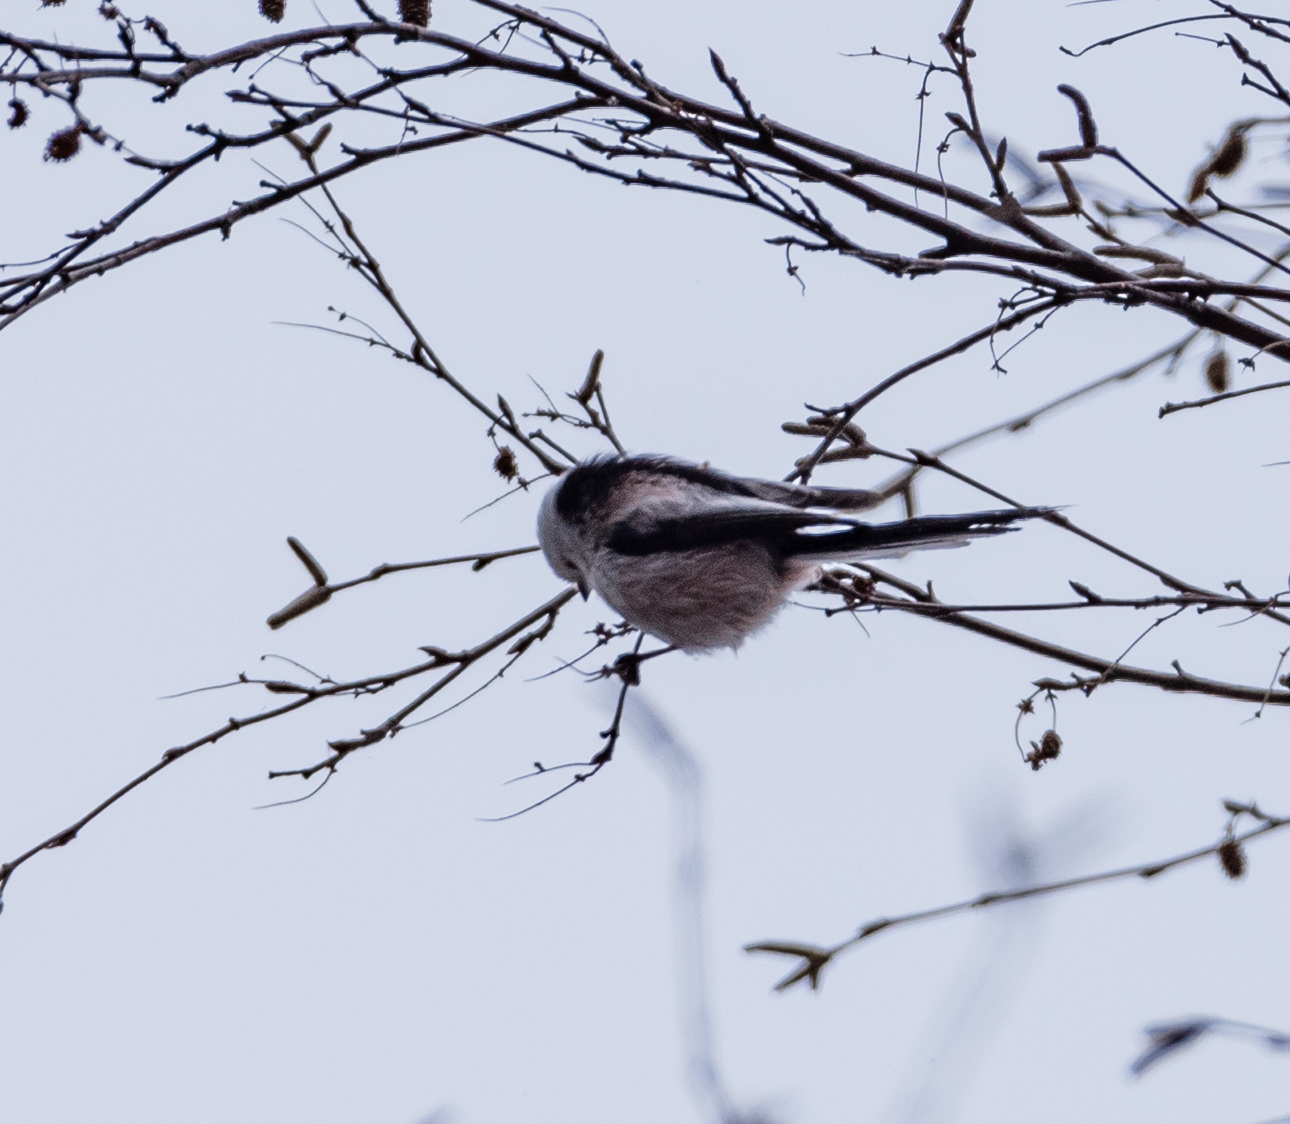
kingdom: Animalia
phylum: Chordata
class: Aves
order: Passeriformes
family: Aegithalidae
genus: Aegithalos
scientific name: Aegithalos caudatus
